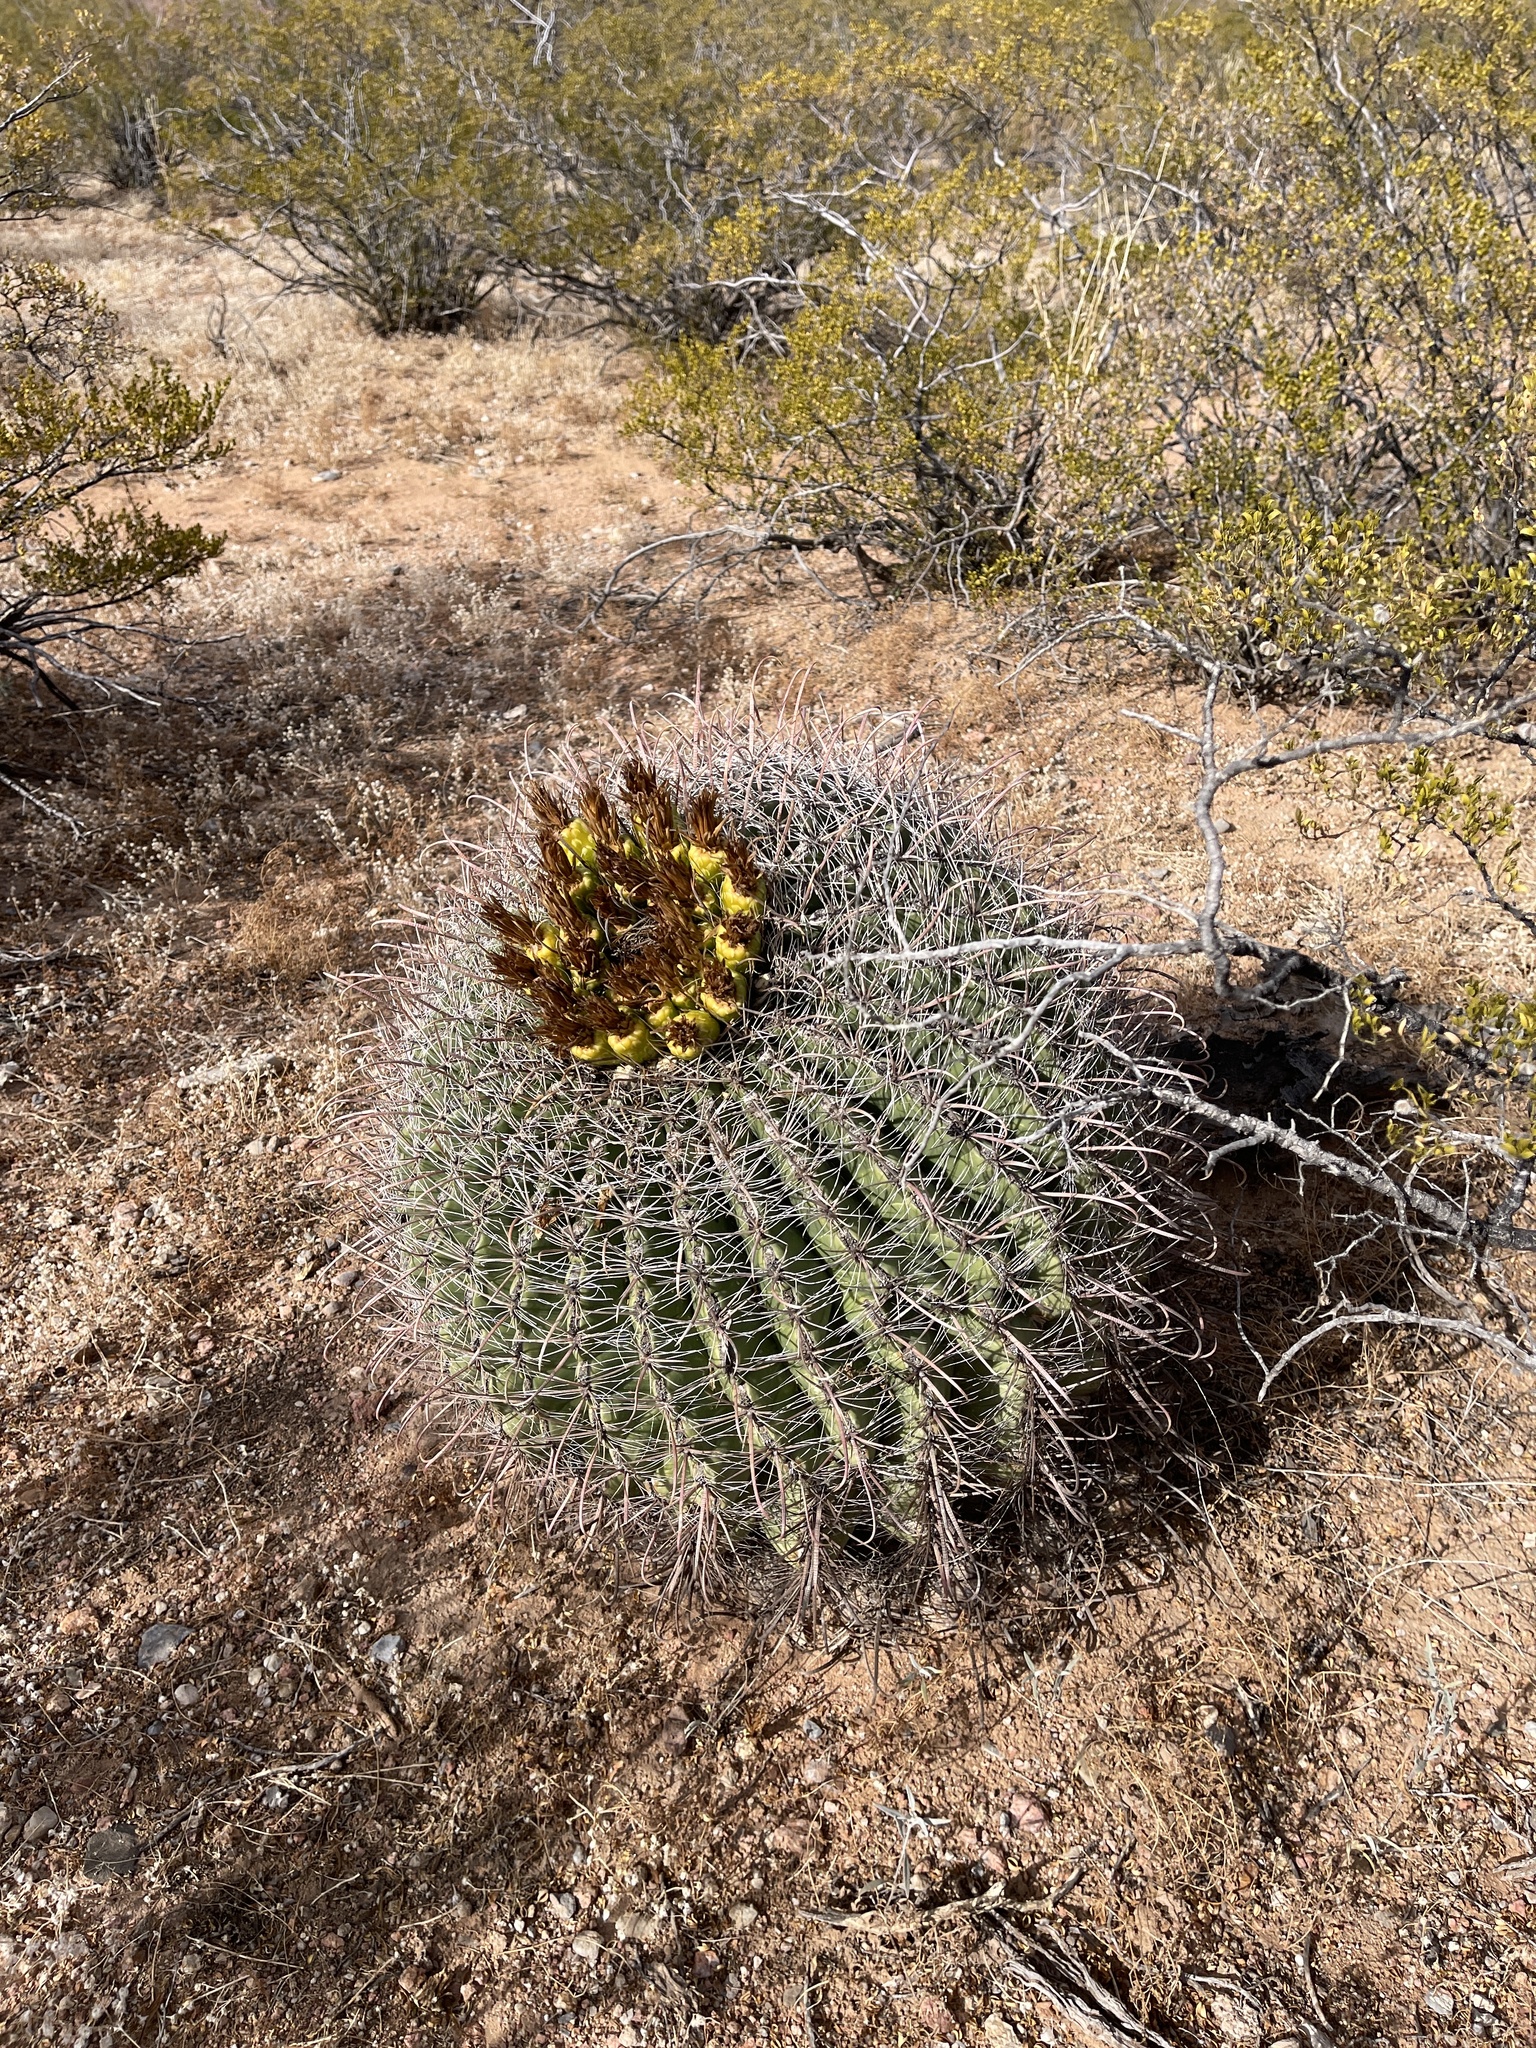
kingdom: Plantae
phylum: Tracheophyta
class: Magnoliopsida
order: Caryophyllales
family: Cactaceae
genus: Ferocactus
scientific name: Ferocactus wislizeni
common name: Candy barrel cactus
